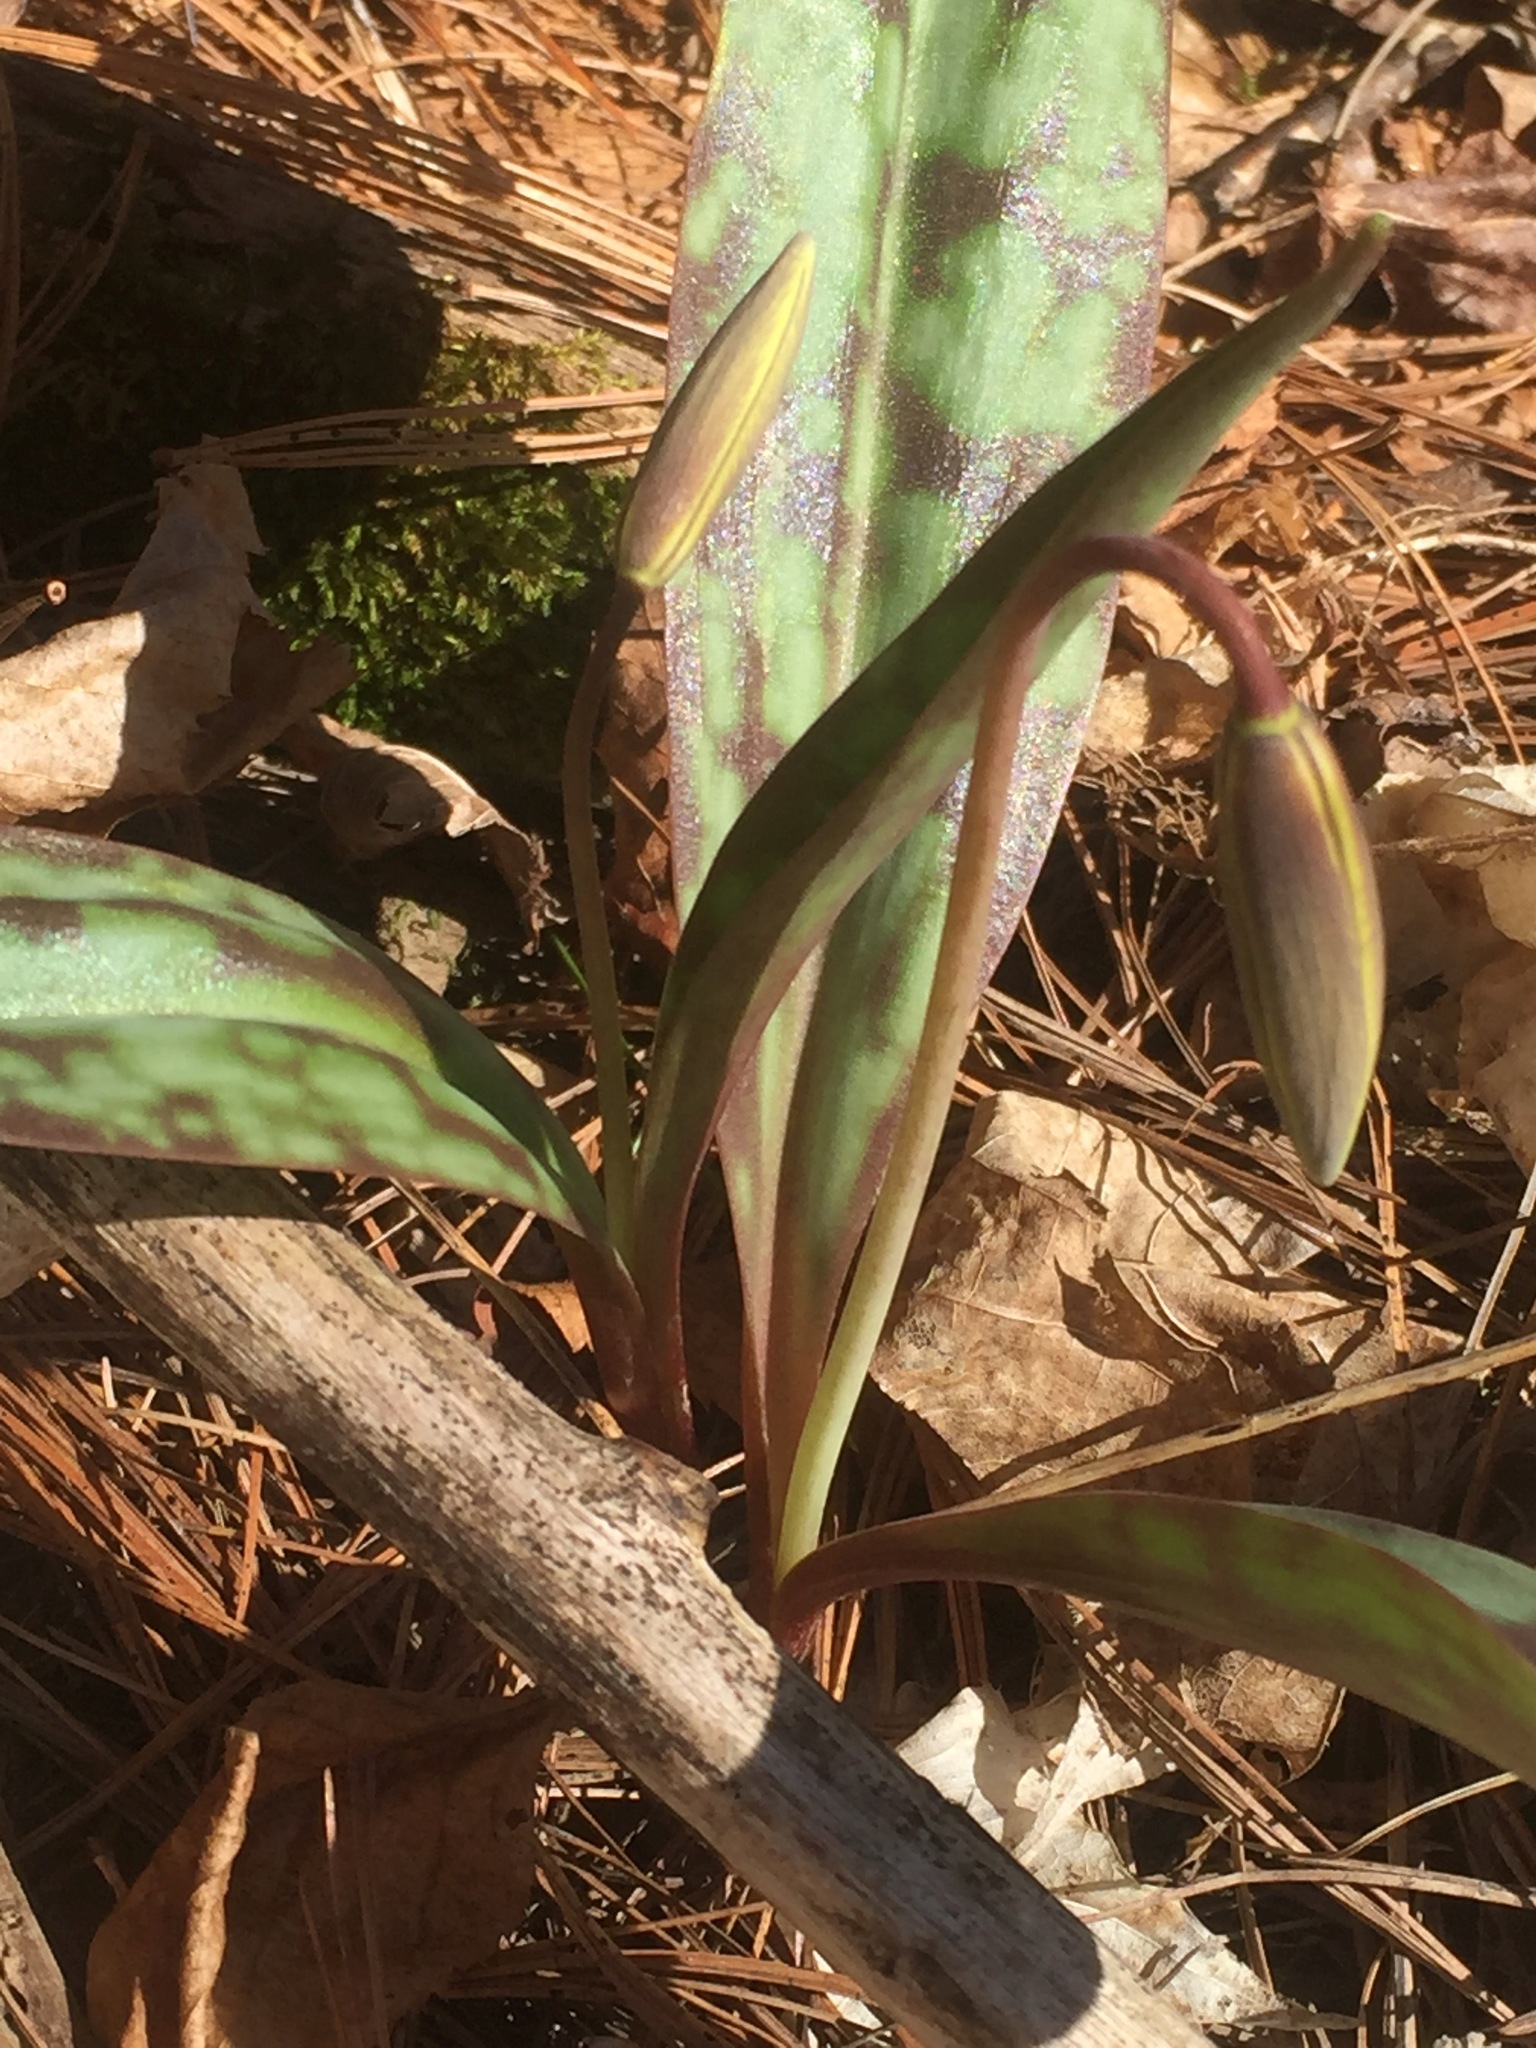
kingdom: Plantae
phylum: Tracheophyta
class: Liliopsida
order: Liliales
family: Liliaceae
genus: Erythronium
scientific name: Erythronium americanum
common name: Yellow adder's-tongue
